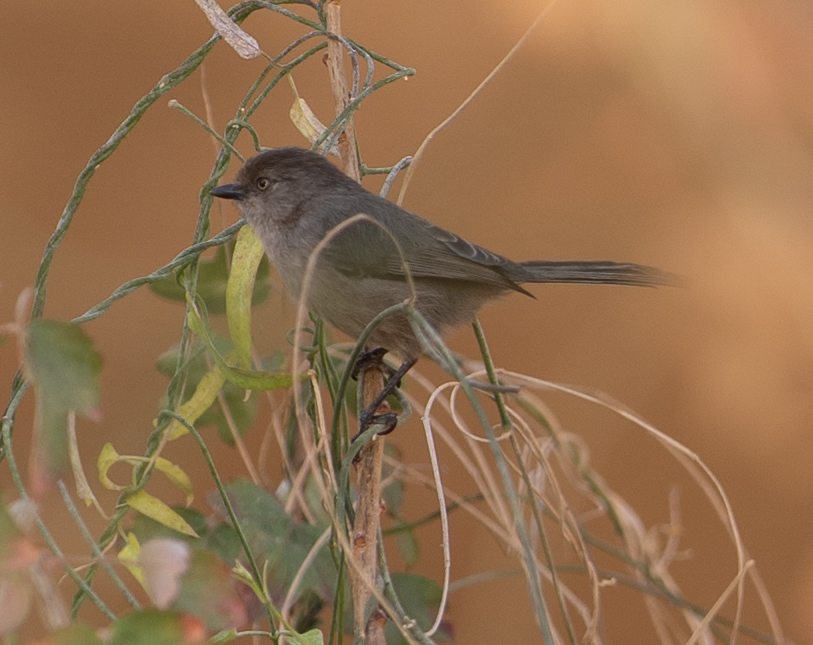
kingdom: Animalia
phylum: Chordata
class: Aves
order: Passeriformes
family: Aegithalidae
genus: Psaltriparus
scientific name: Psaltriparus minimus
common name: American bushtit
